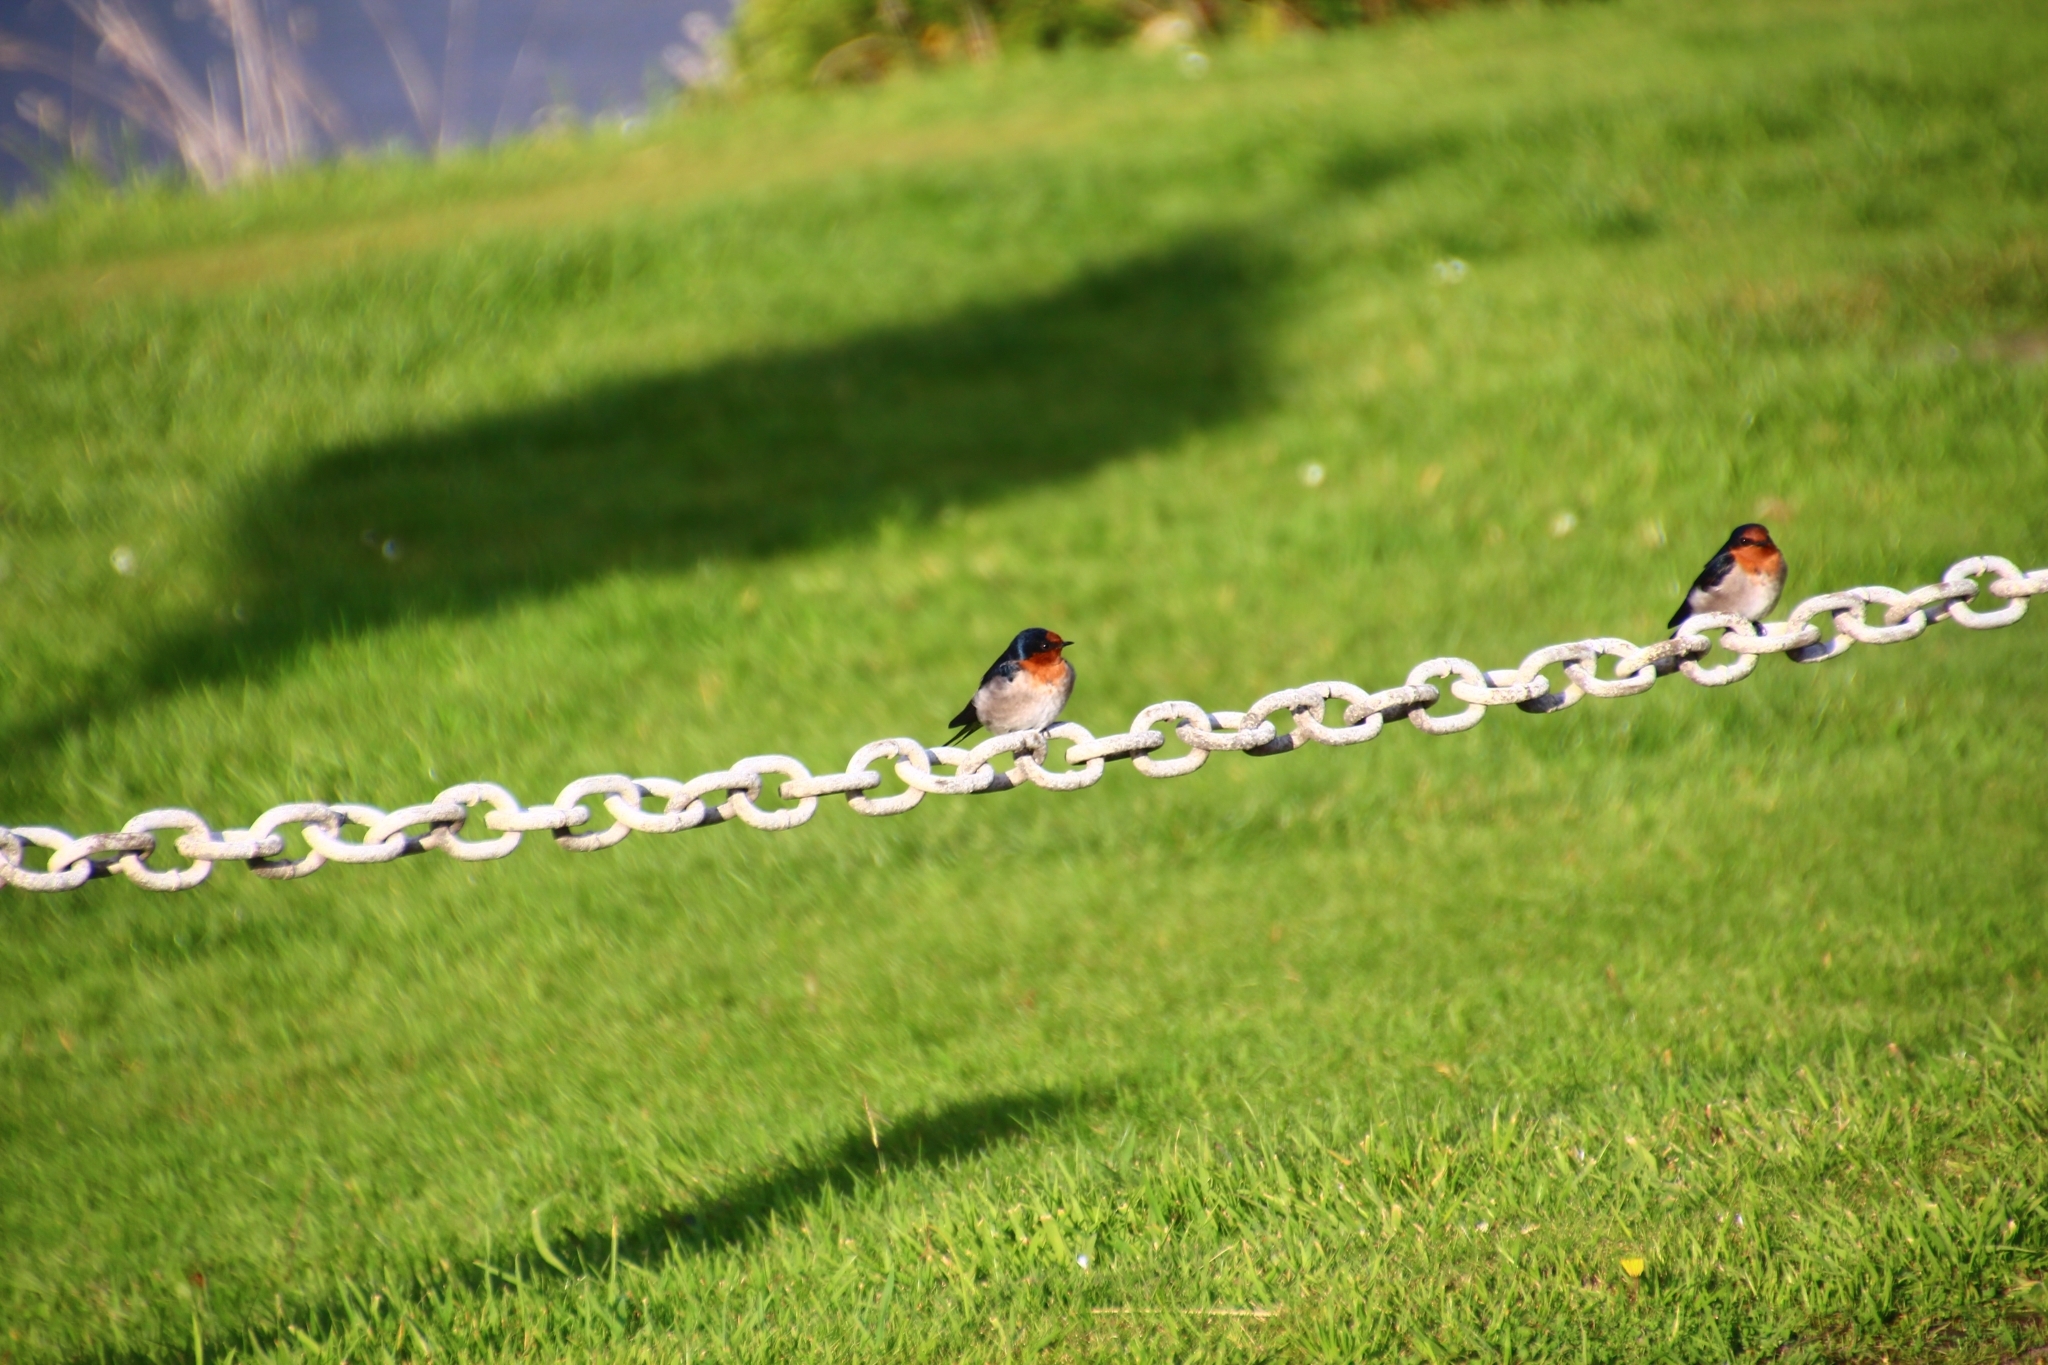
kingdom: Animalia
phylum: Chordata
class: Aves
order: Passeriformes
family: Hirundinidae
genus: Hirundo
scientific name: Hirundo neoxena
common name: Welcome swallow
